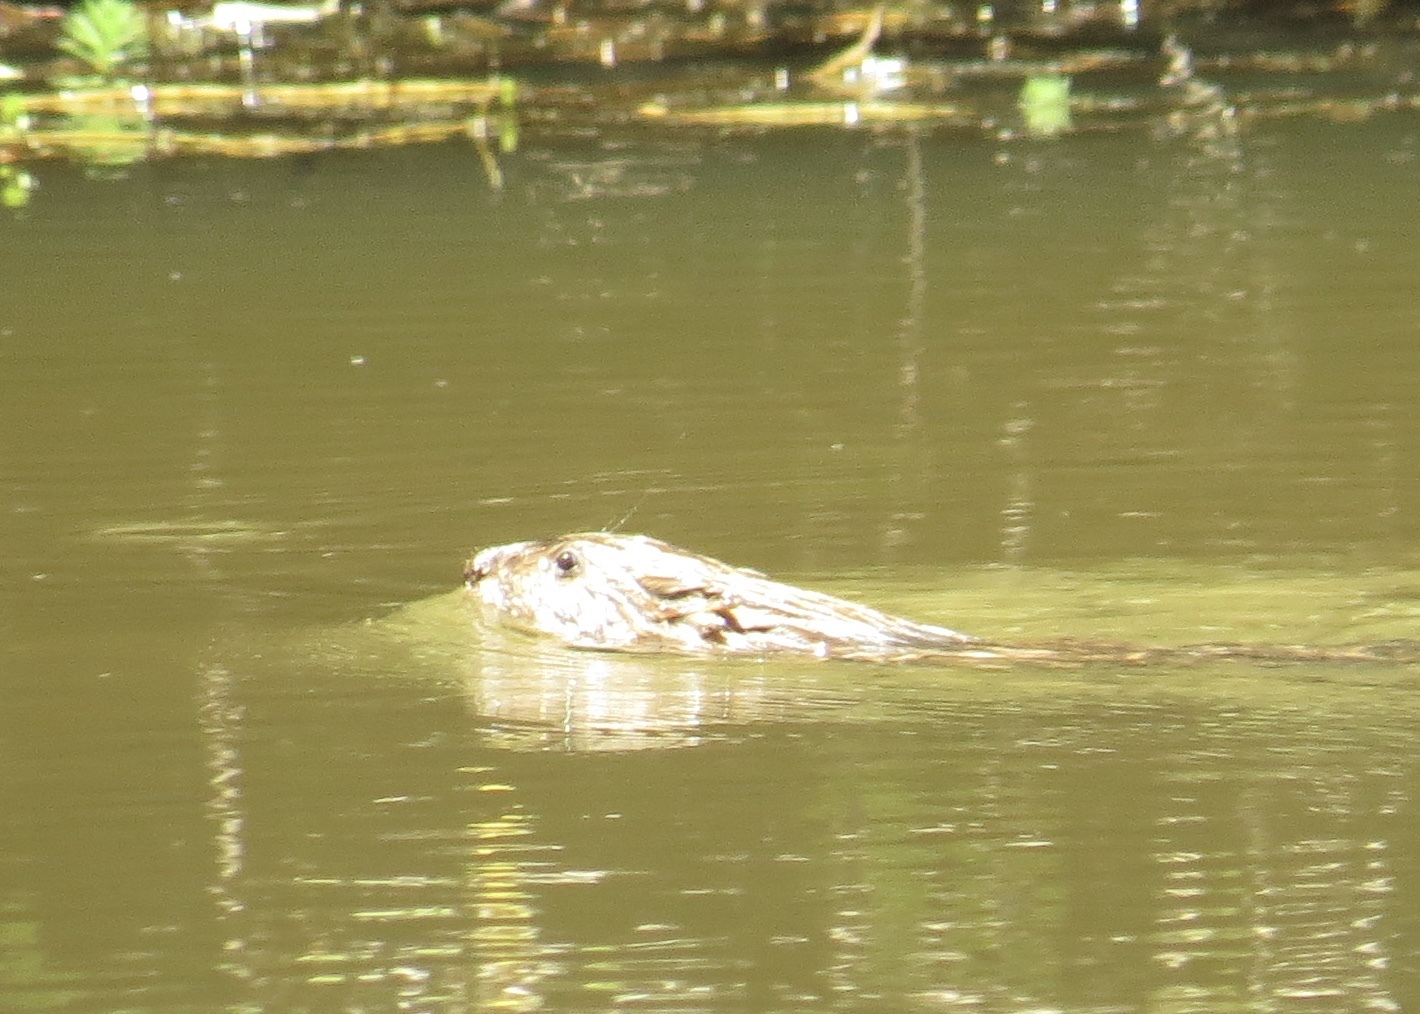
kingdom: Animalia
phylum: Chordata
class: Mammalia
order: Rodentia
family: Cricetidae
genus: Ondatra
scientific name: Ondatra zibethicus
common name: Muskrat
